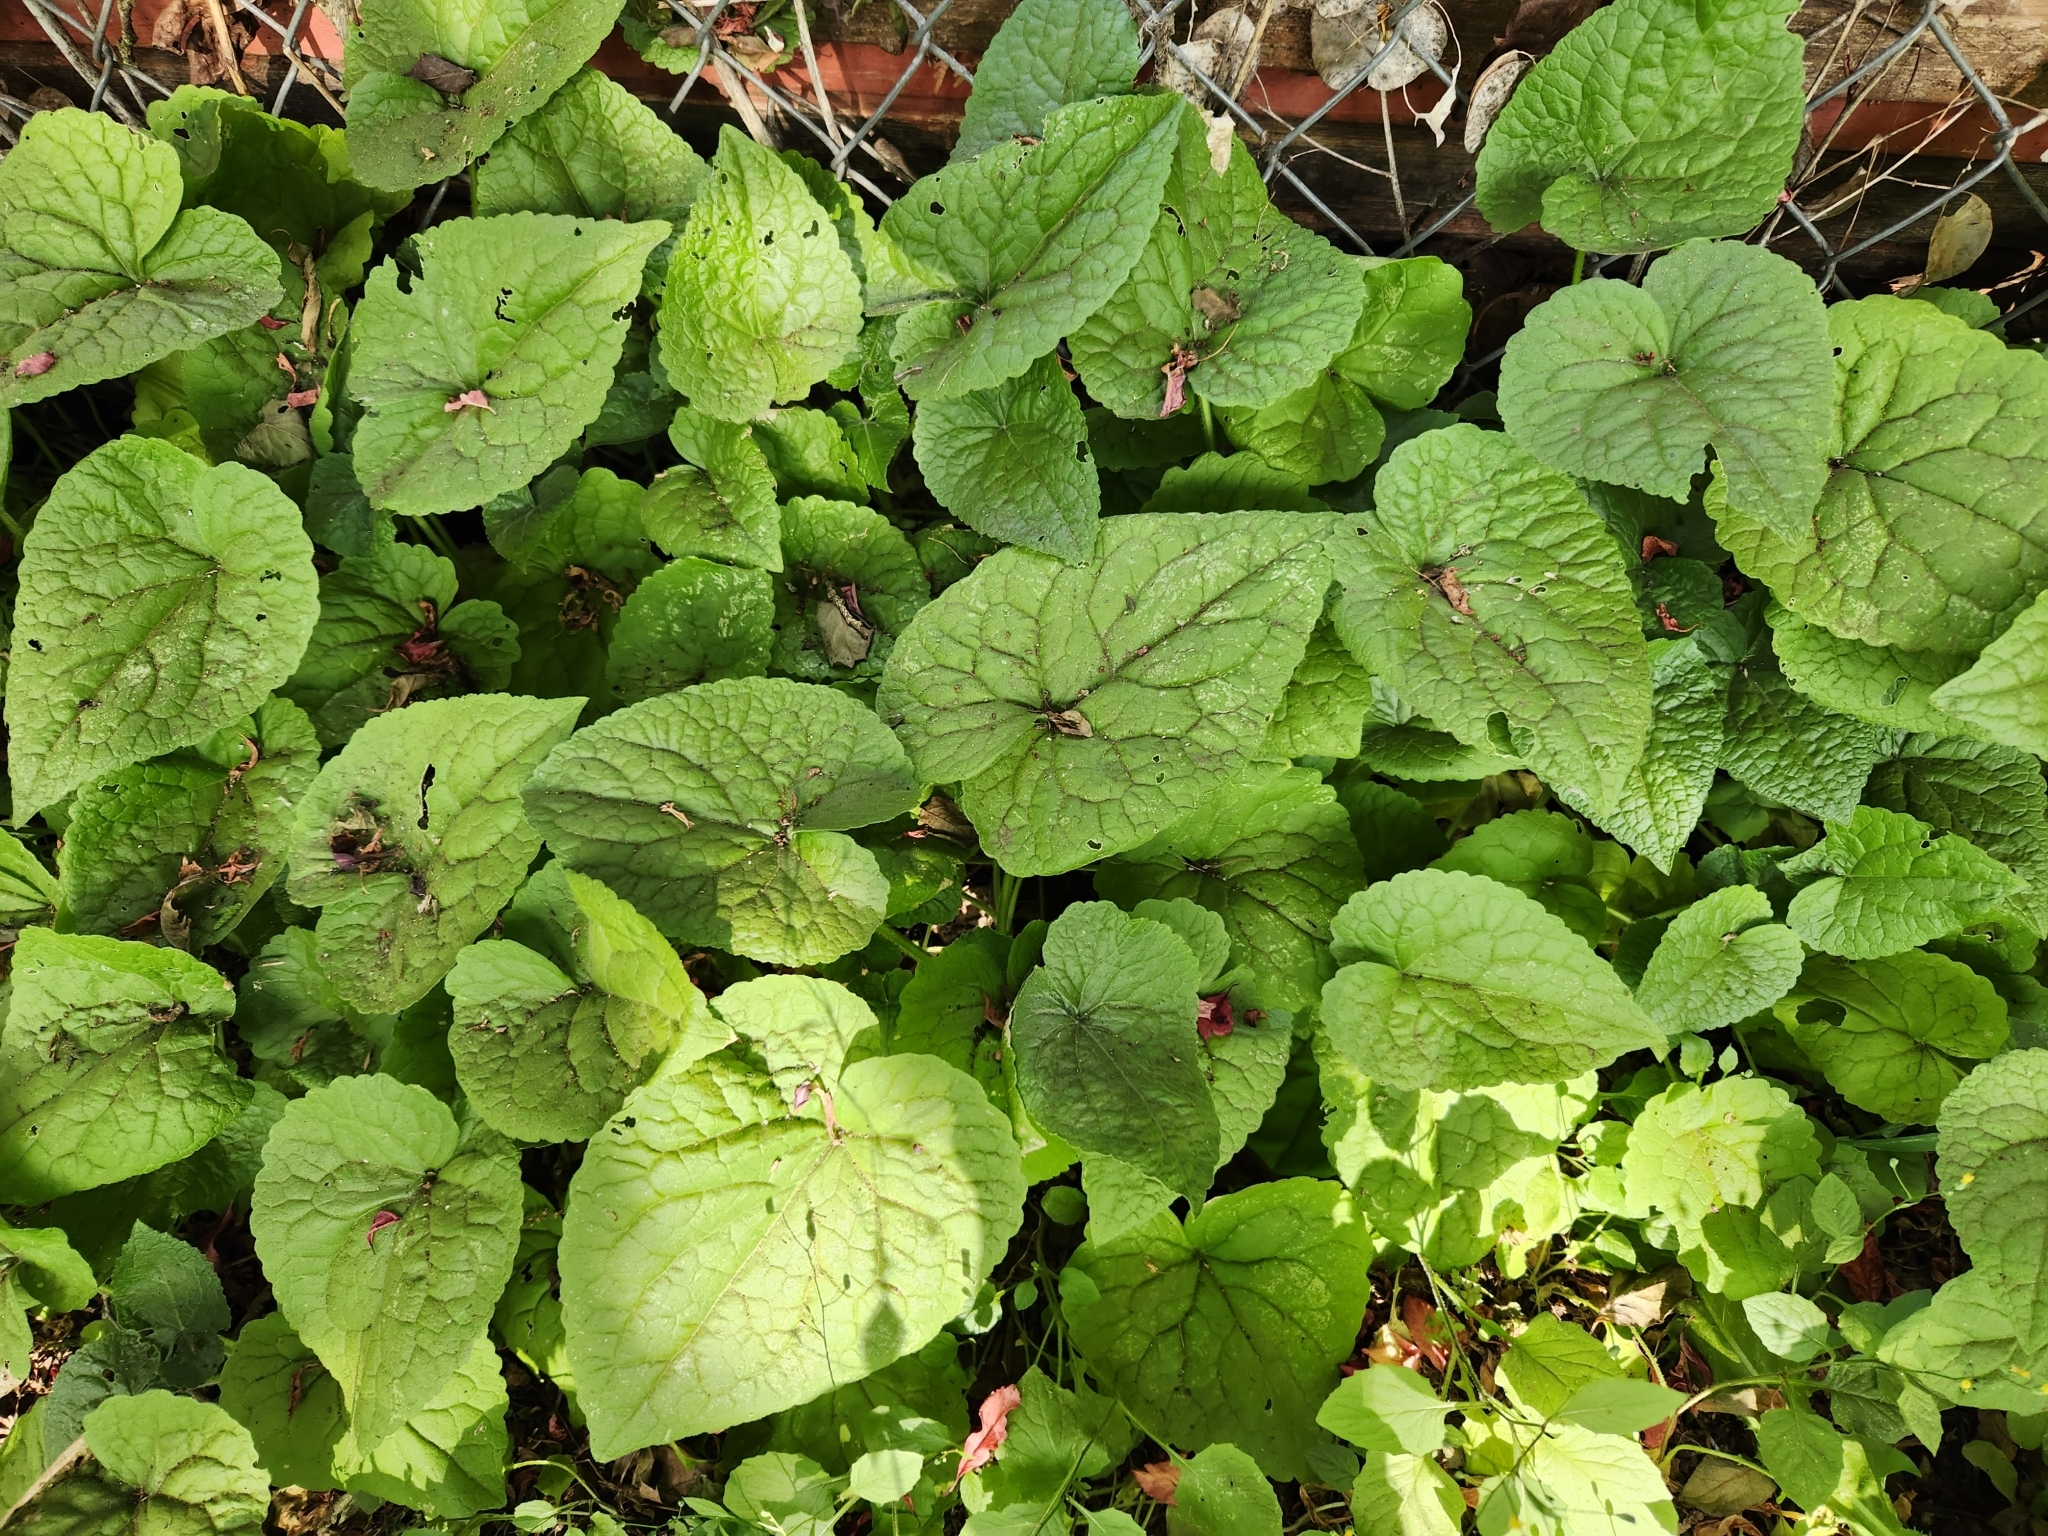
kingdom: Plantae
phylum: Tracheophyta
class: Magnoliopsida
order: Brassicales
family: Brassicaceae
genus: Lunaria
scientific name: Lunaria annua
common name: Honesty
